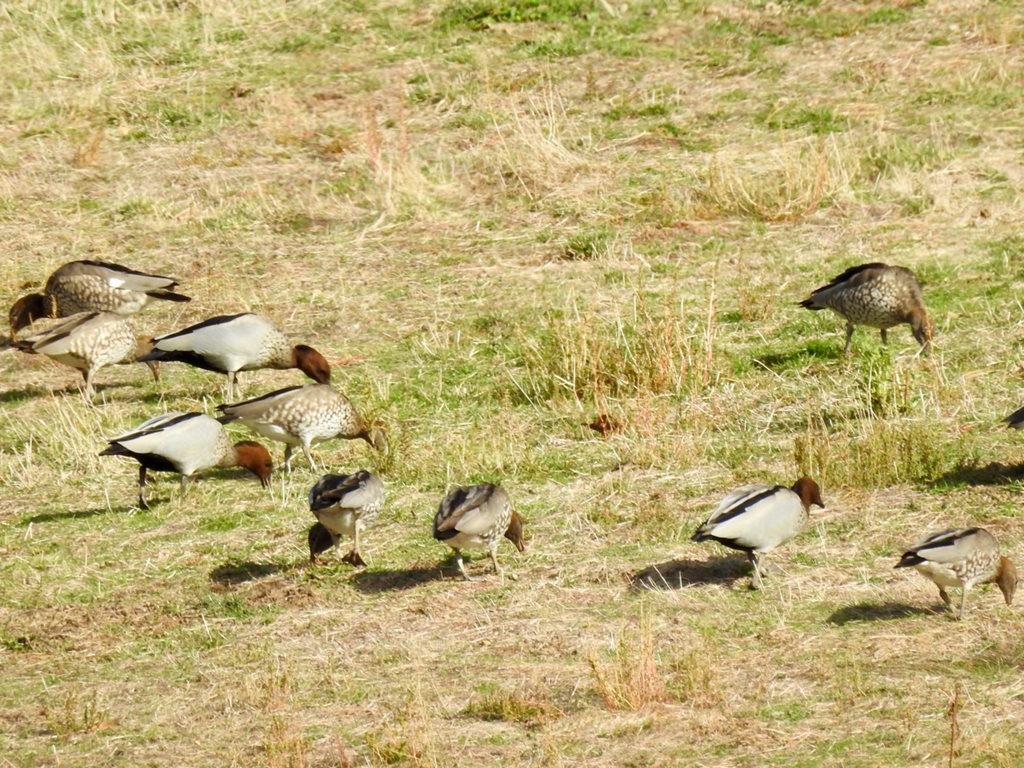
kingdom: Animalia
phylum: Chordata
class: Aves
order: Anseriformes
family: Anatidae
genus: Chenonetta
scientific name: Chenonetta jubata
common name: Maned duck
